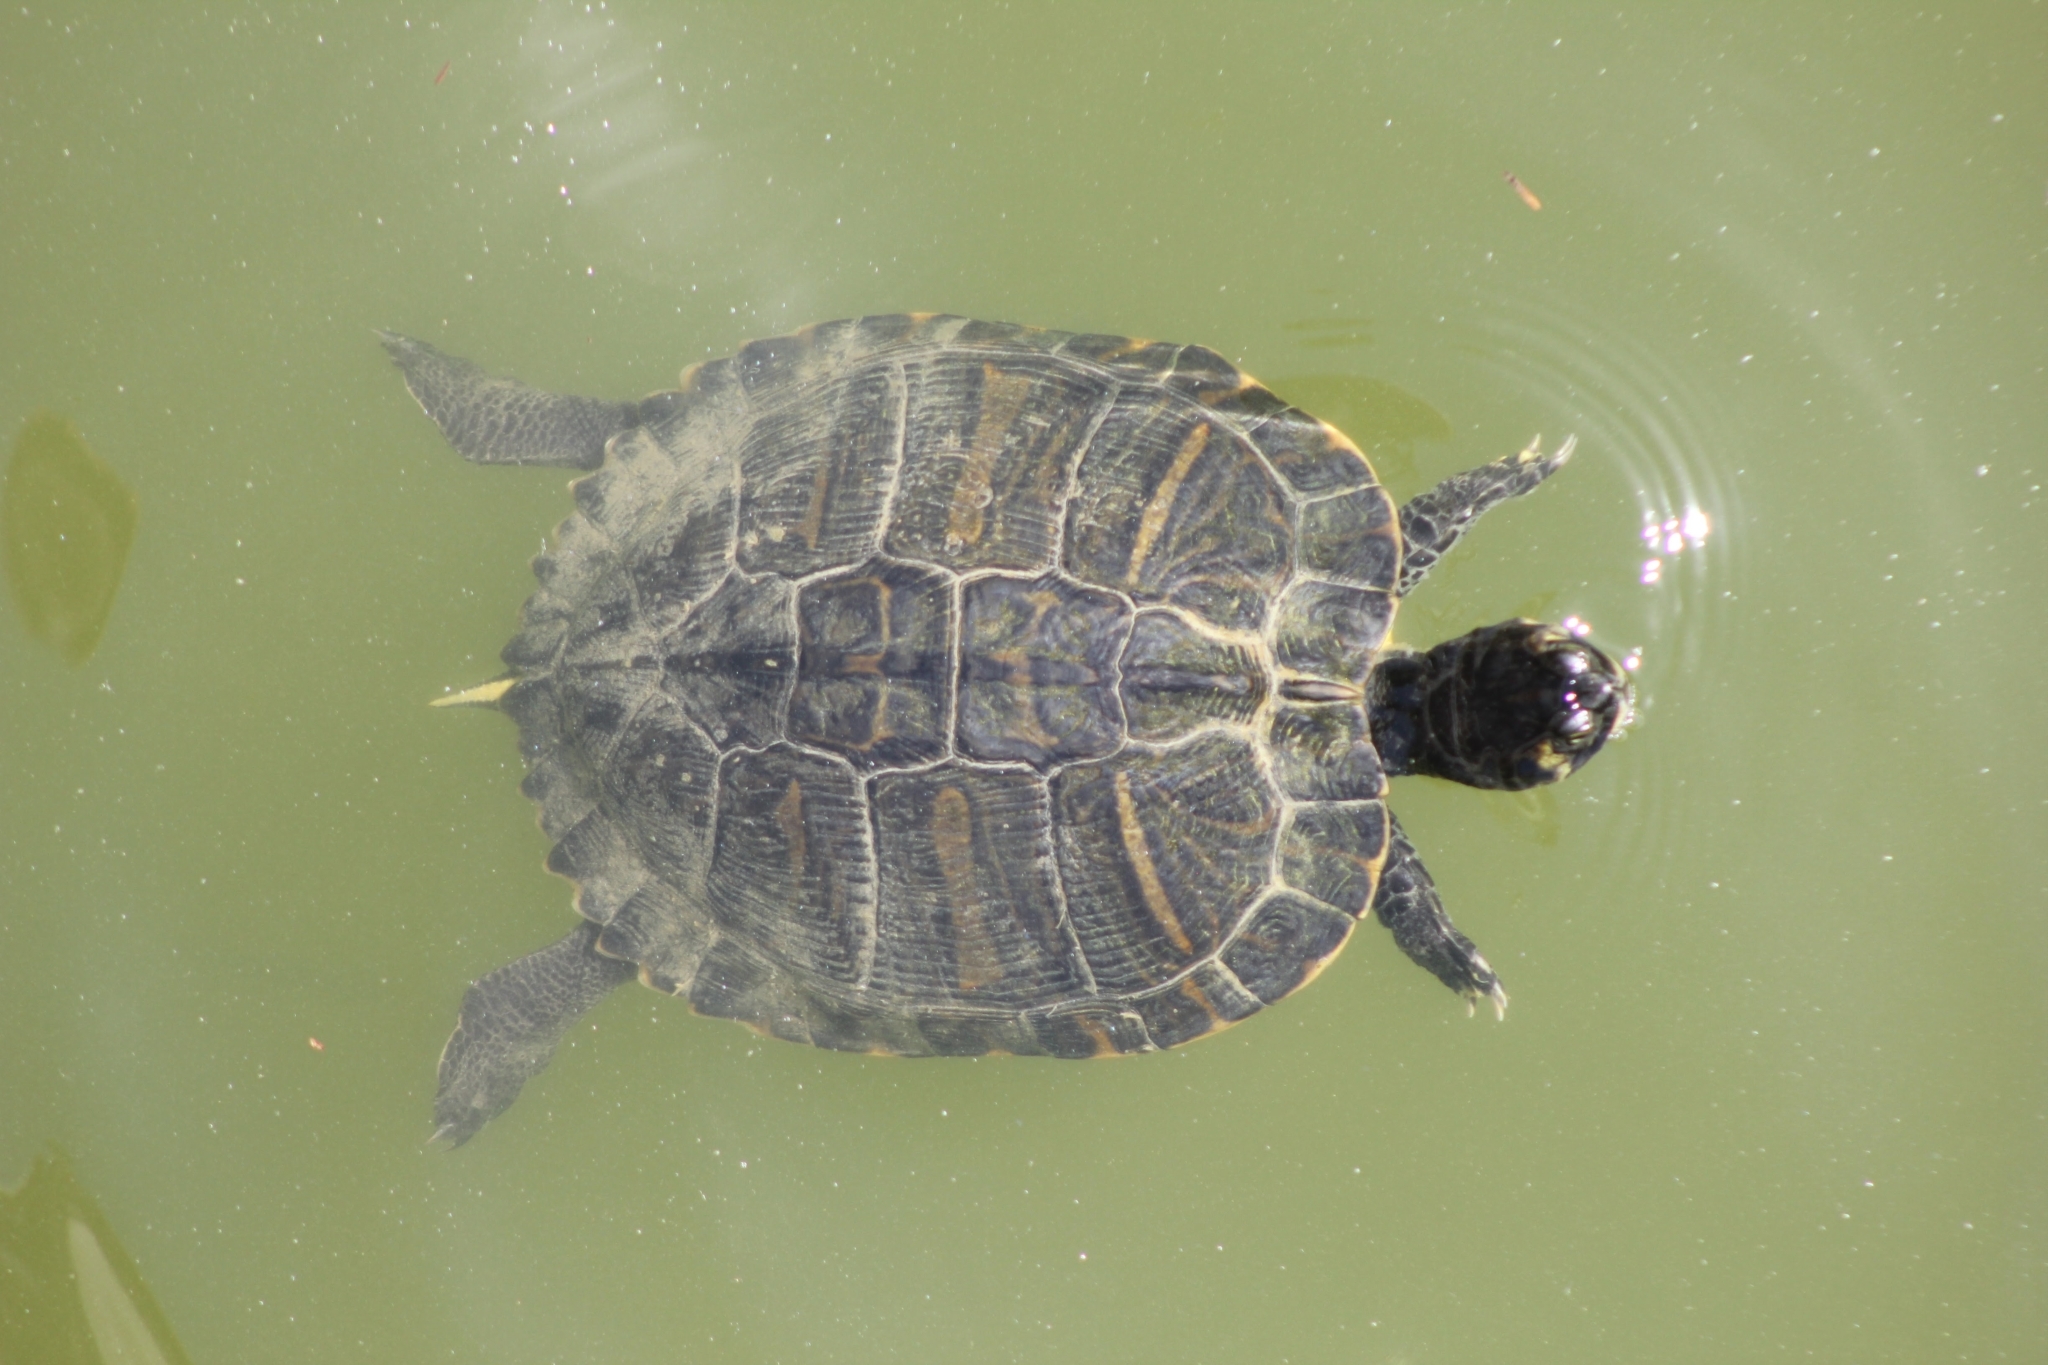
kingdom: Animalia
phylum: Chordata
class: Testudines
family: Emydidae
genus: Trachemys
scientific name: Trachemys scripta
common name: Slider
